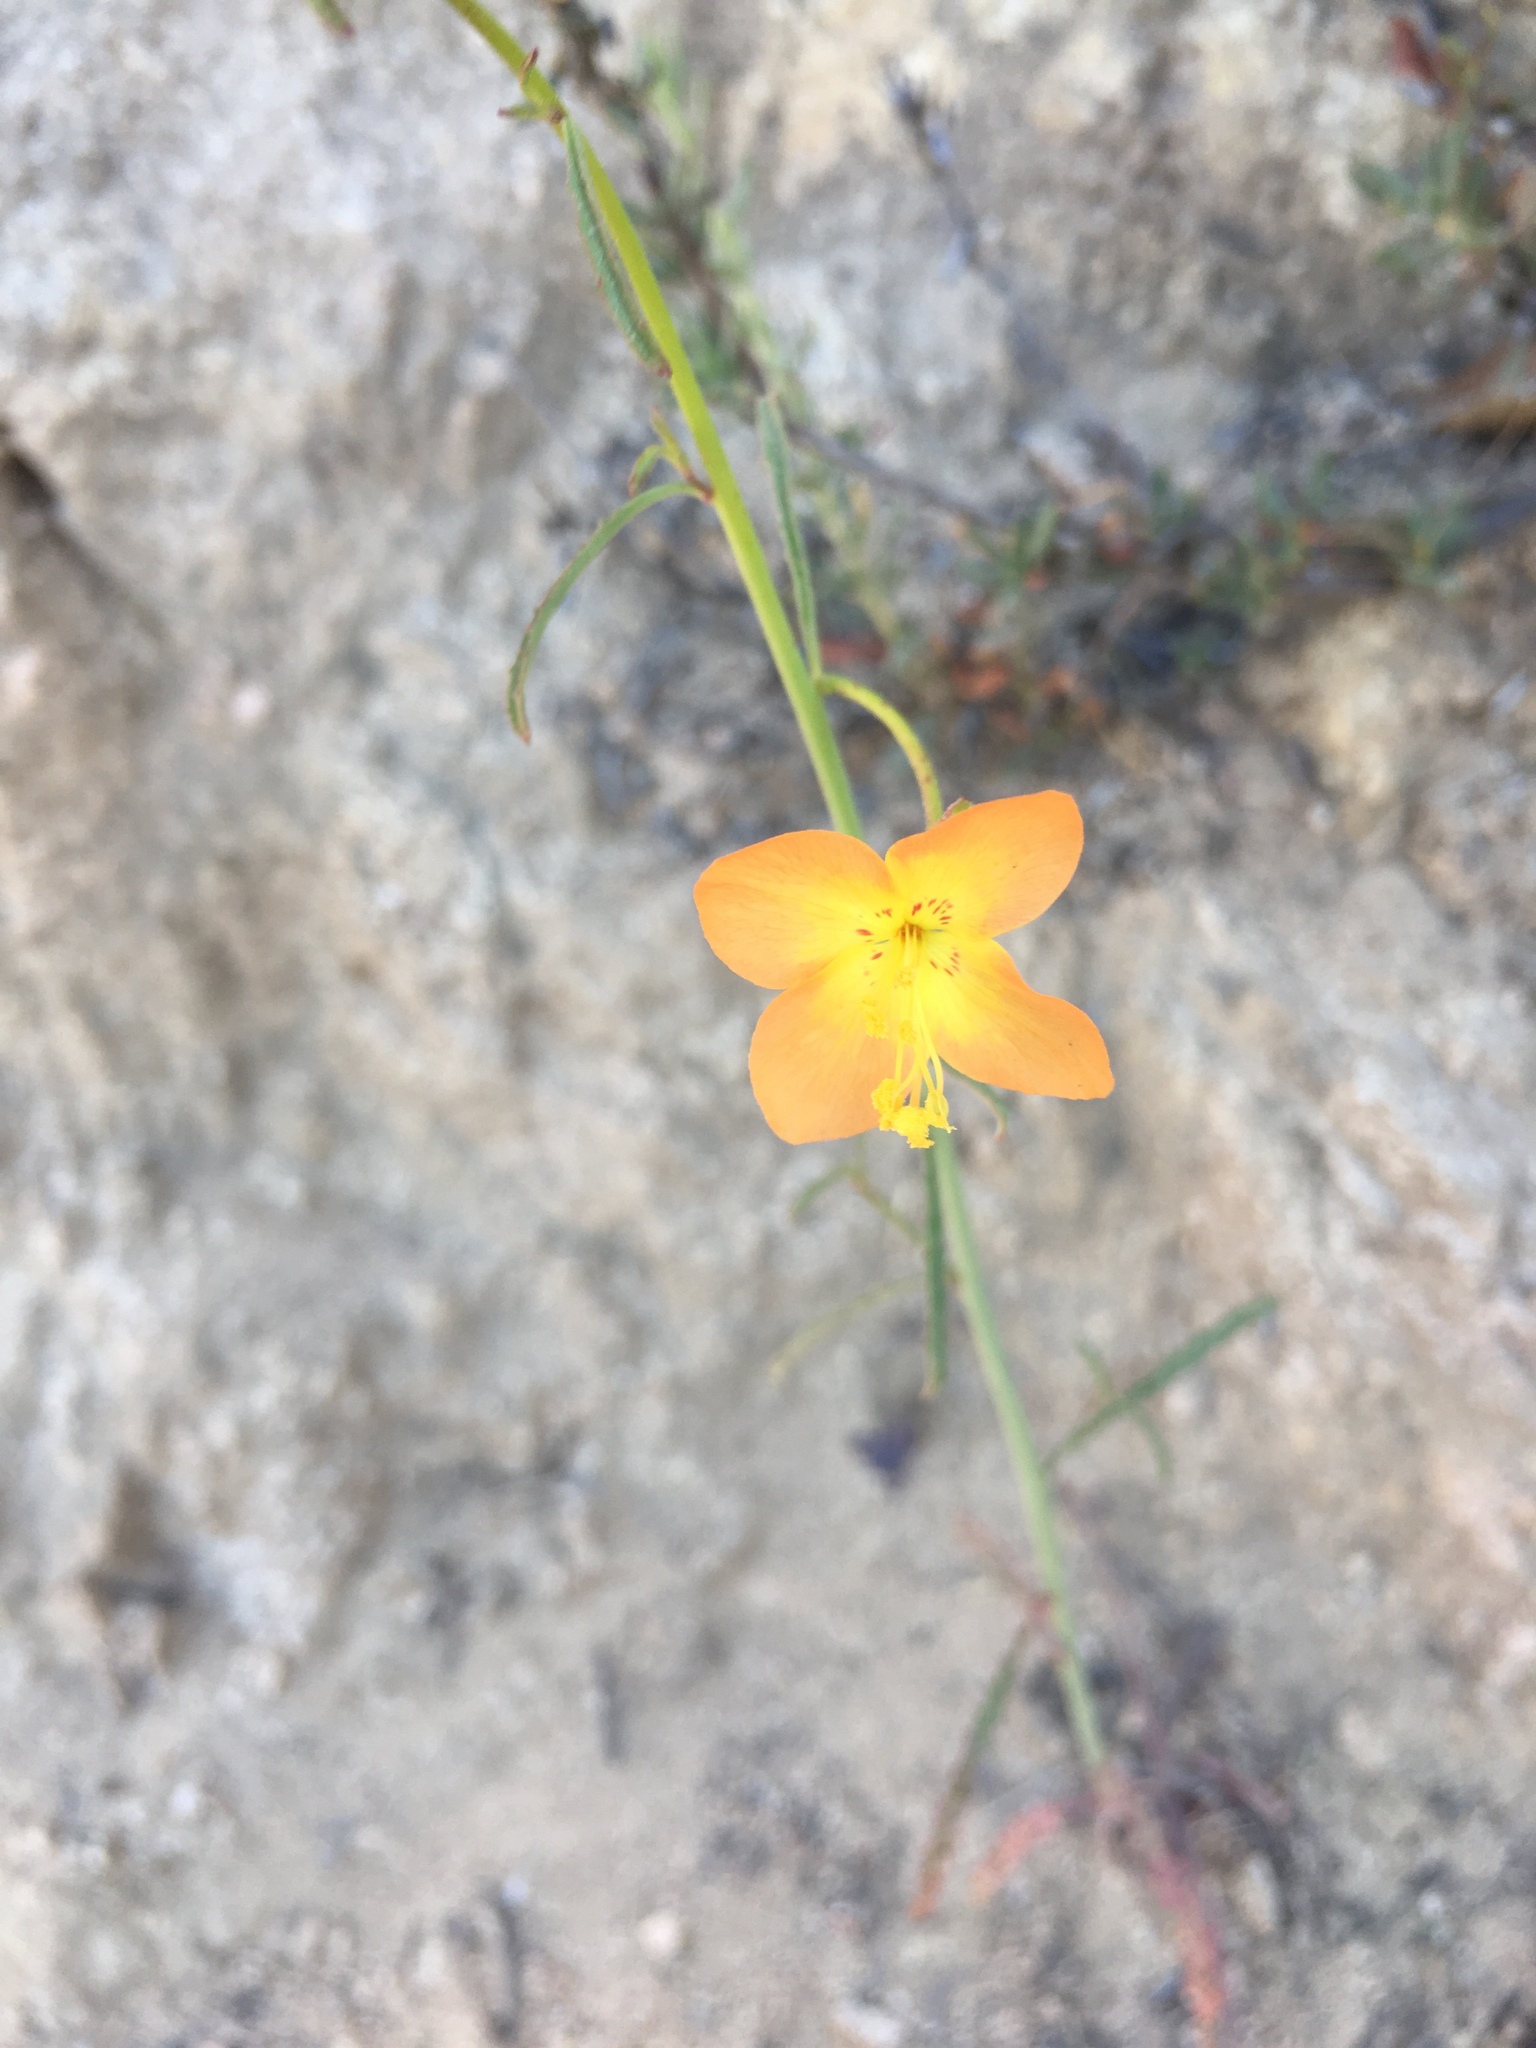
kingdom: Plantae
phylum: Tracheophyta
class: Magnoliopsida
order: Myrtales
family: Onagraceae
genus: Eulobus
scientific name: Eulobus californicus
